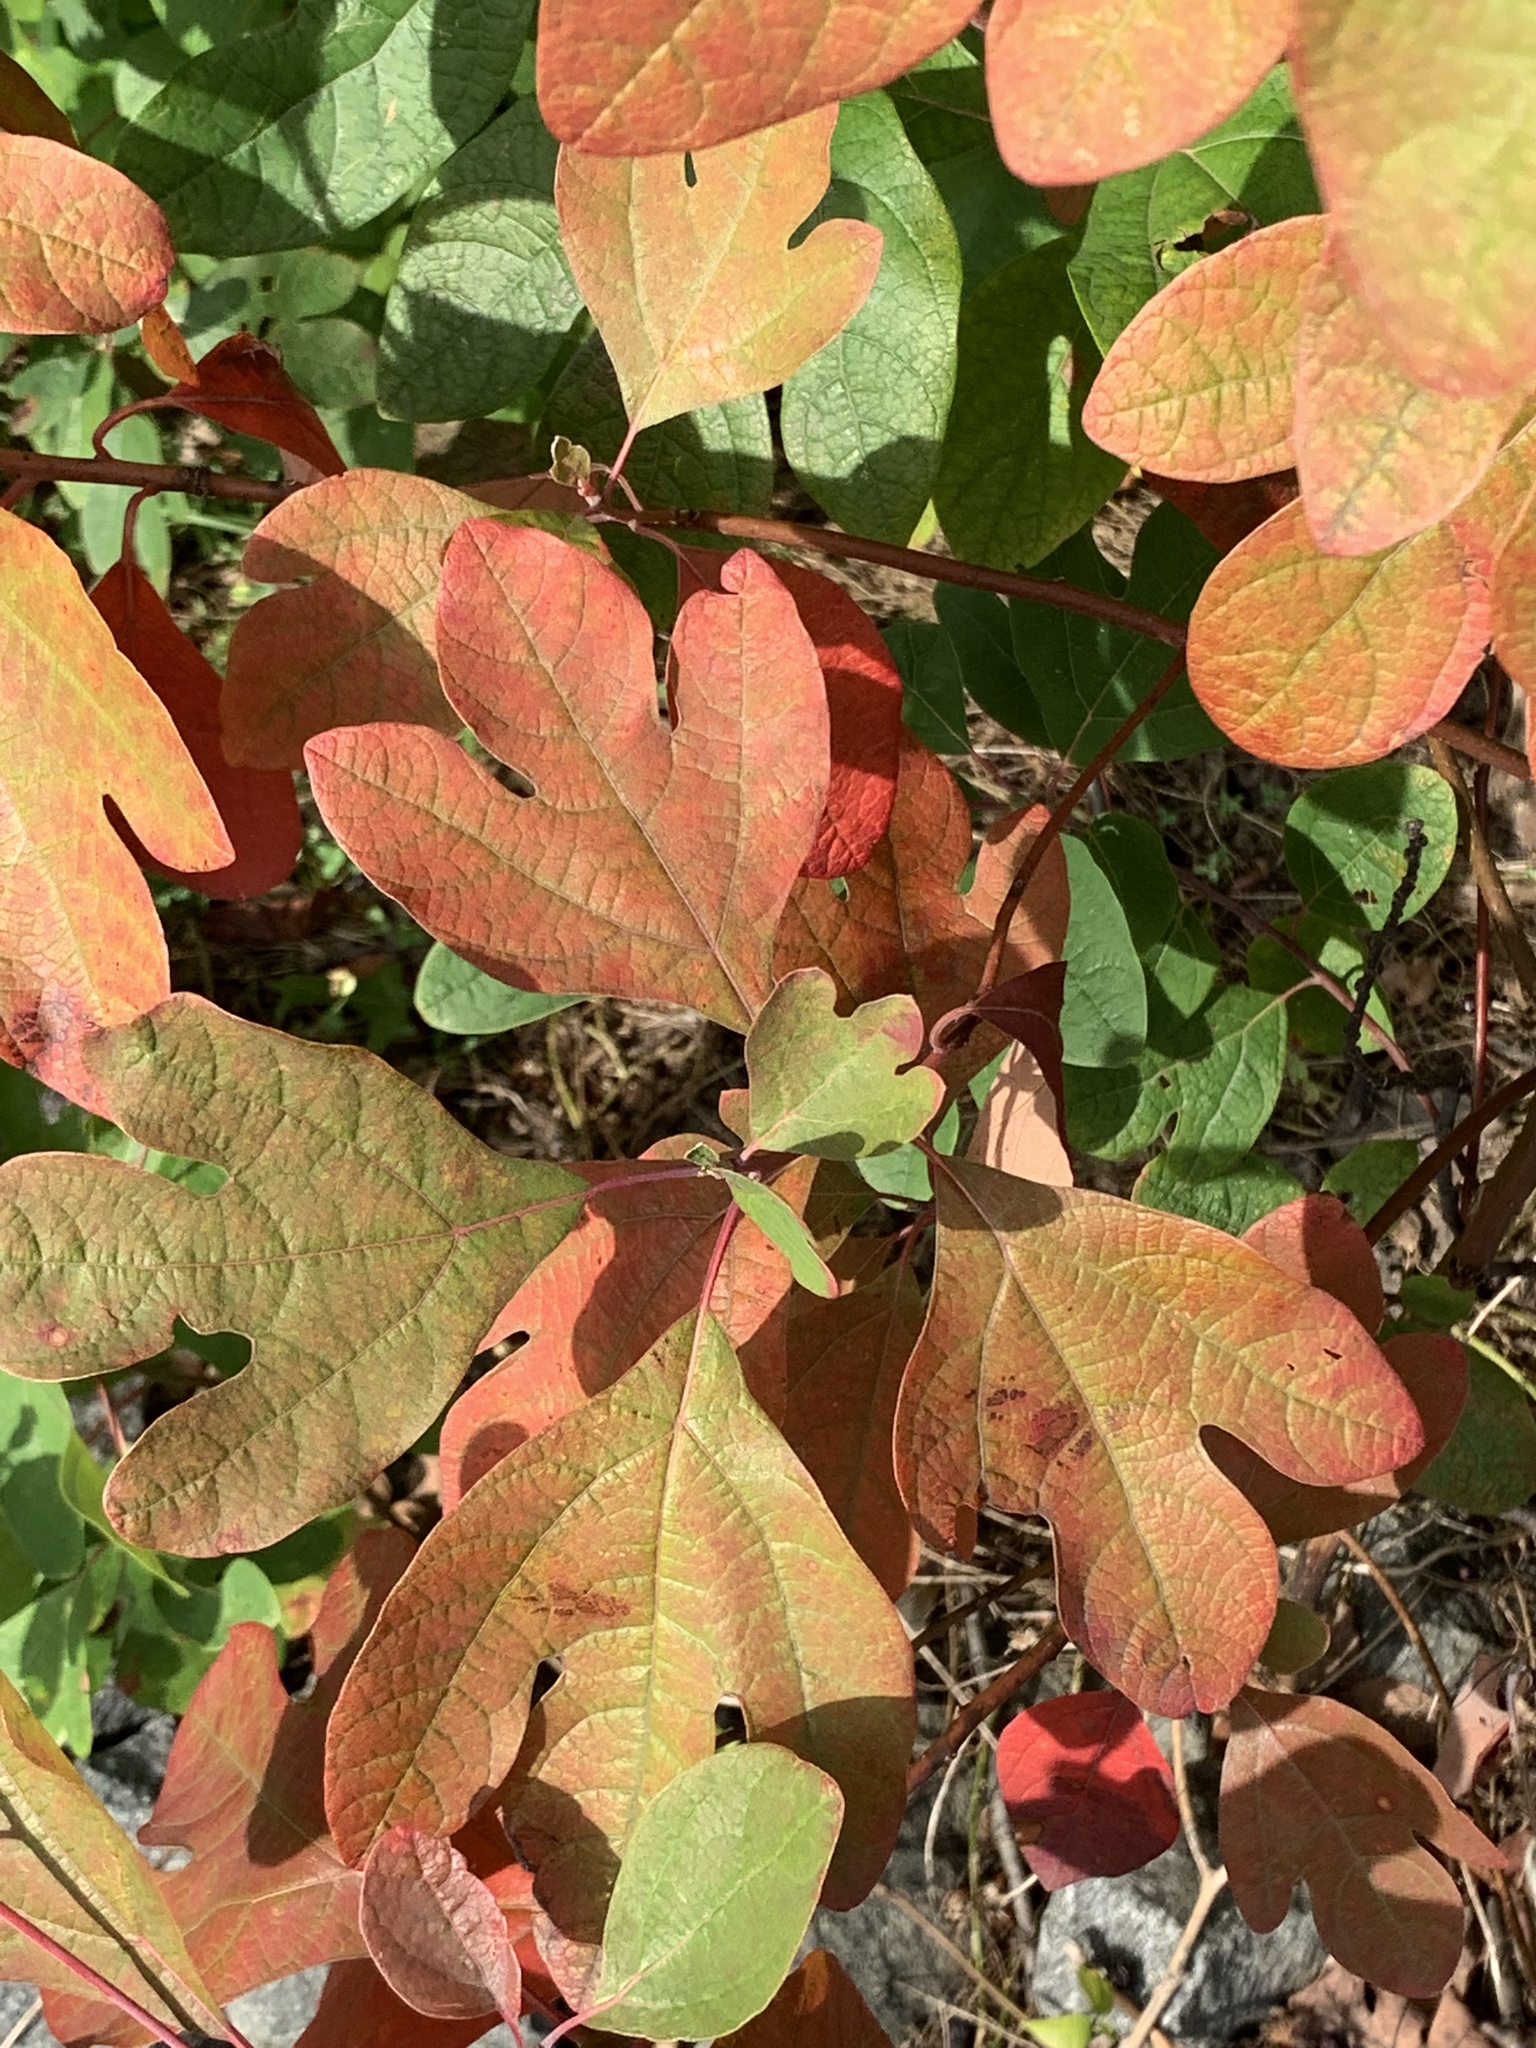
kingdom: Plantae
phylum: Tracheophyta
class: Magnoliopsida
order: Laurales
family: Lauraceae
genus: Sassafras
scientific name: Sassafras albidum
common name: Sassafras
